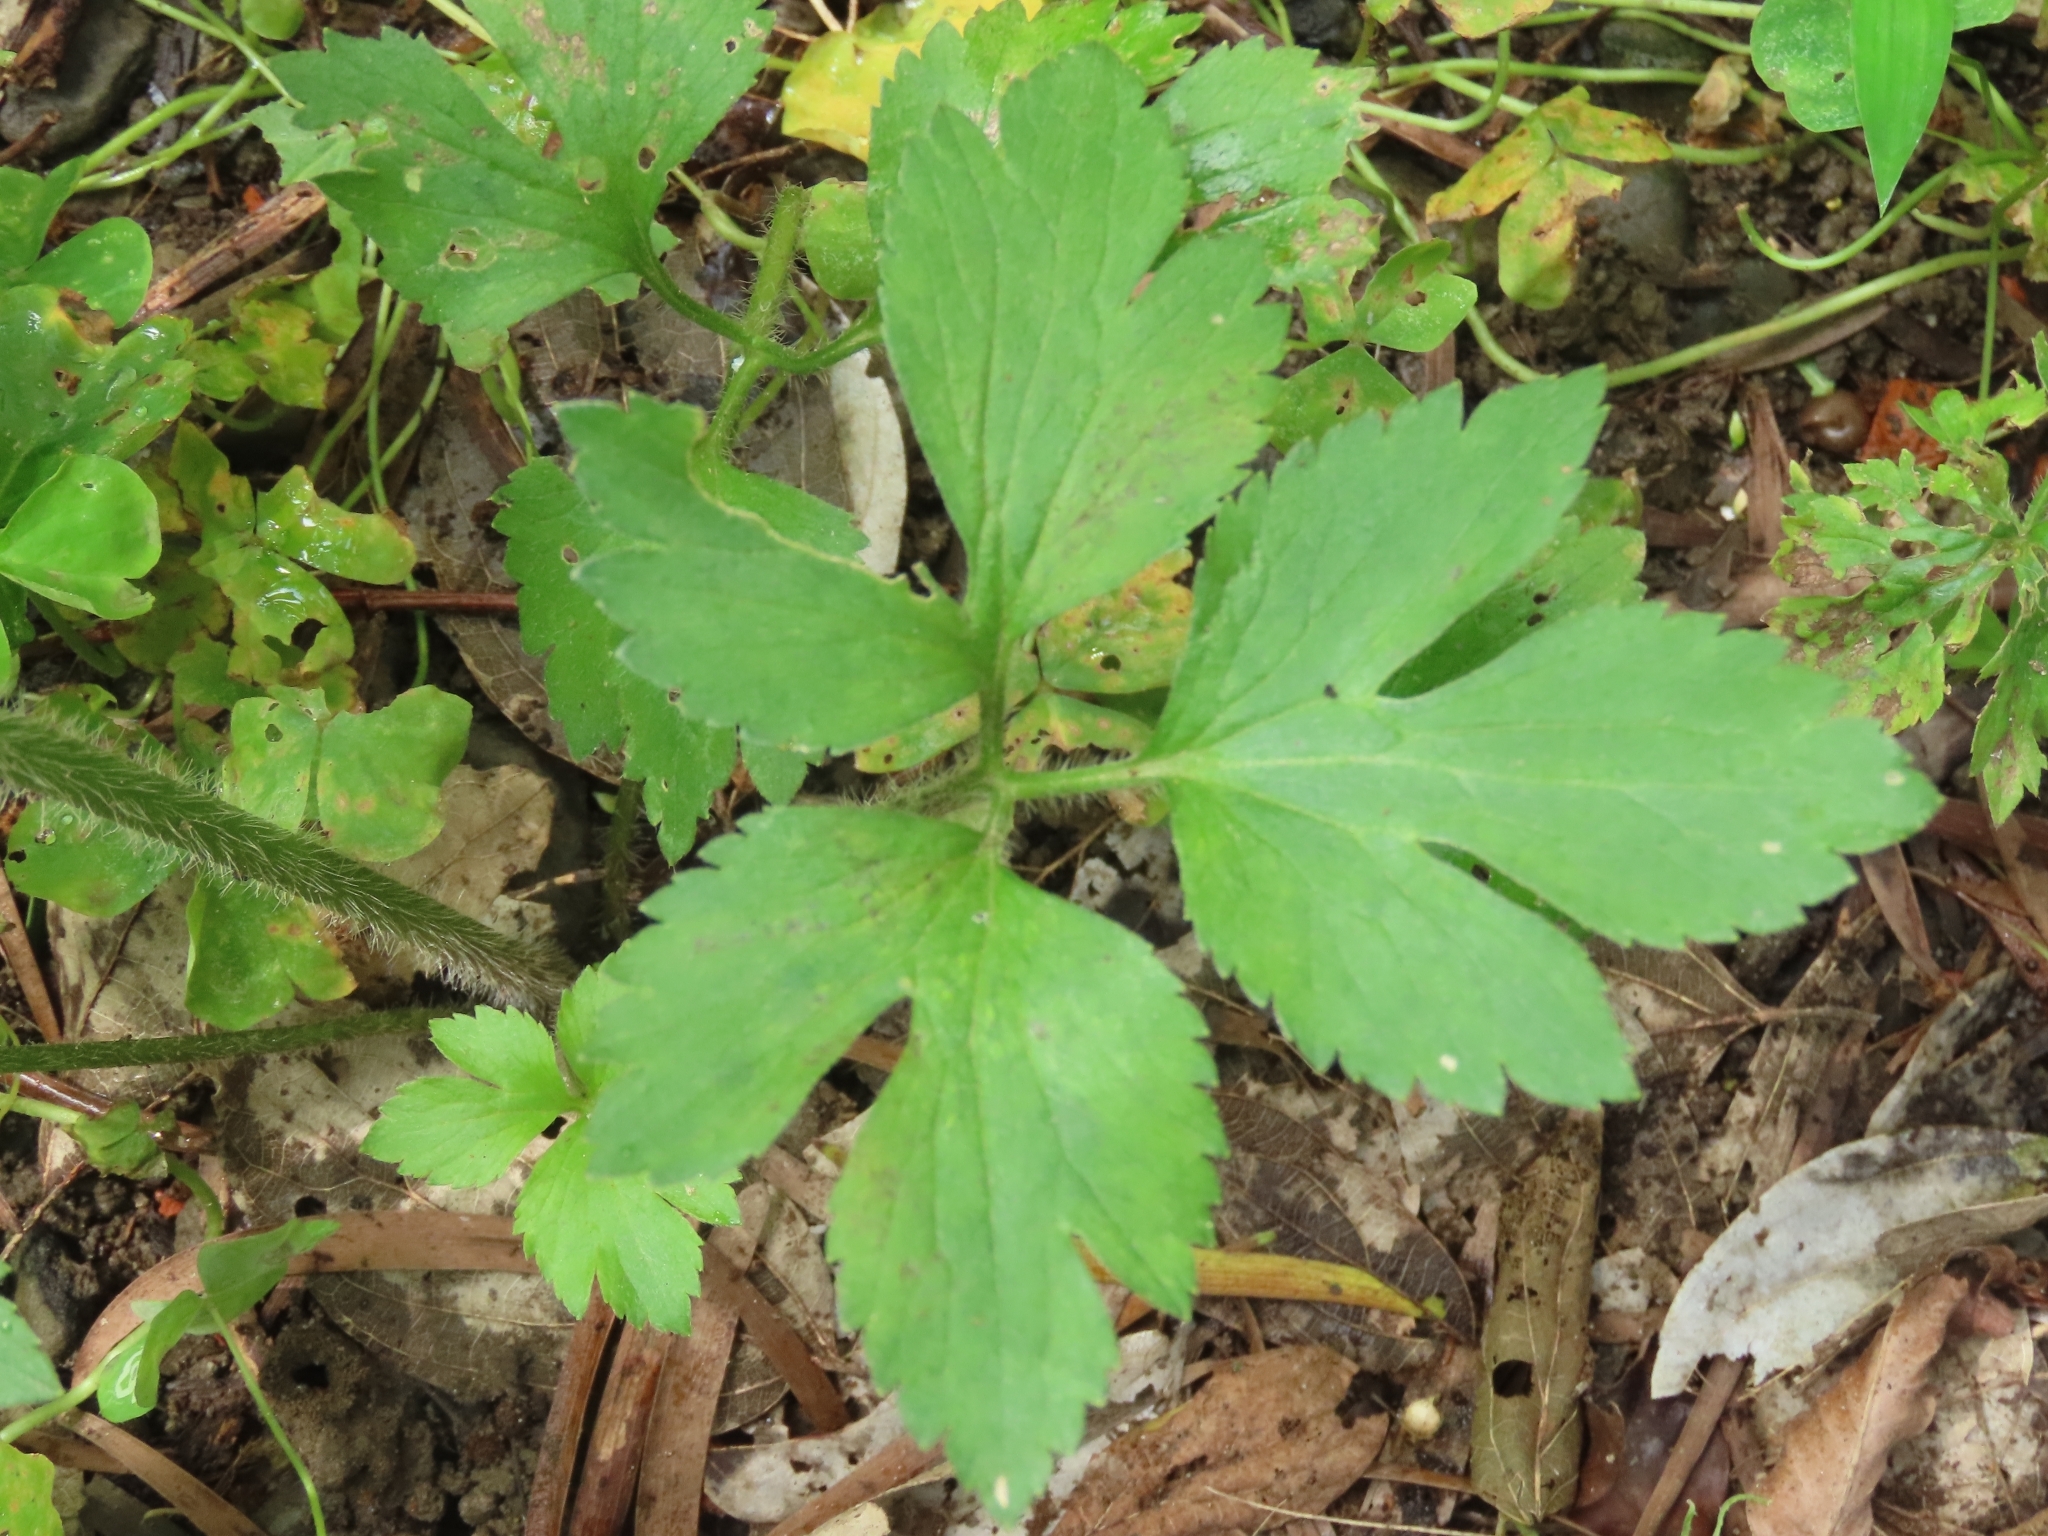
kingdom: Plantae
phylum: Tracheophyta
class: Magnoliopsida
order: Ranunculales
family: Ranunculaceae
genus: Ranunculus
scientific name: Ranunculus cantoniensis
